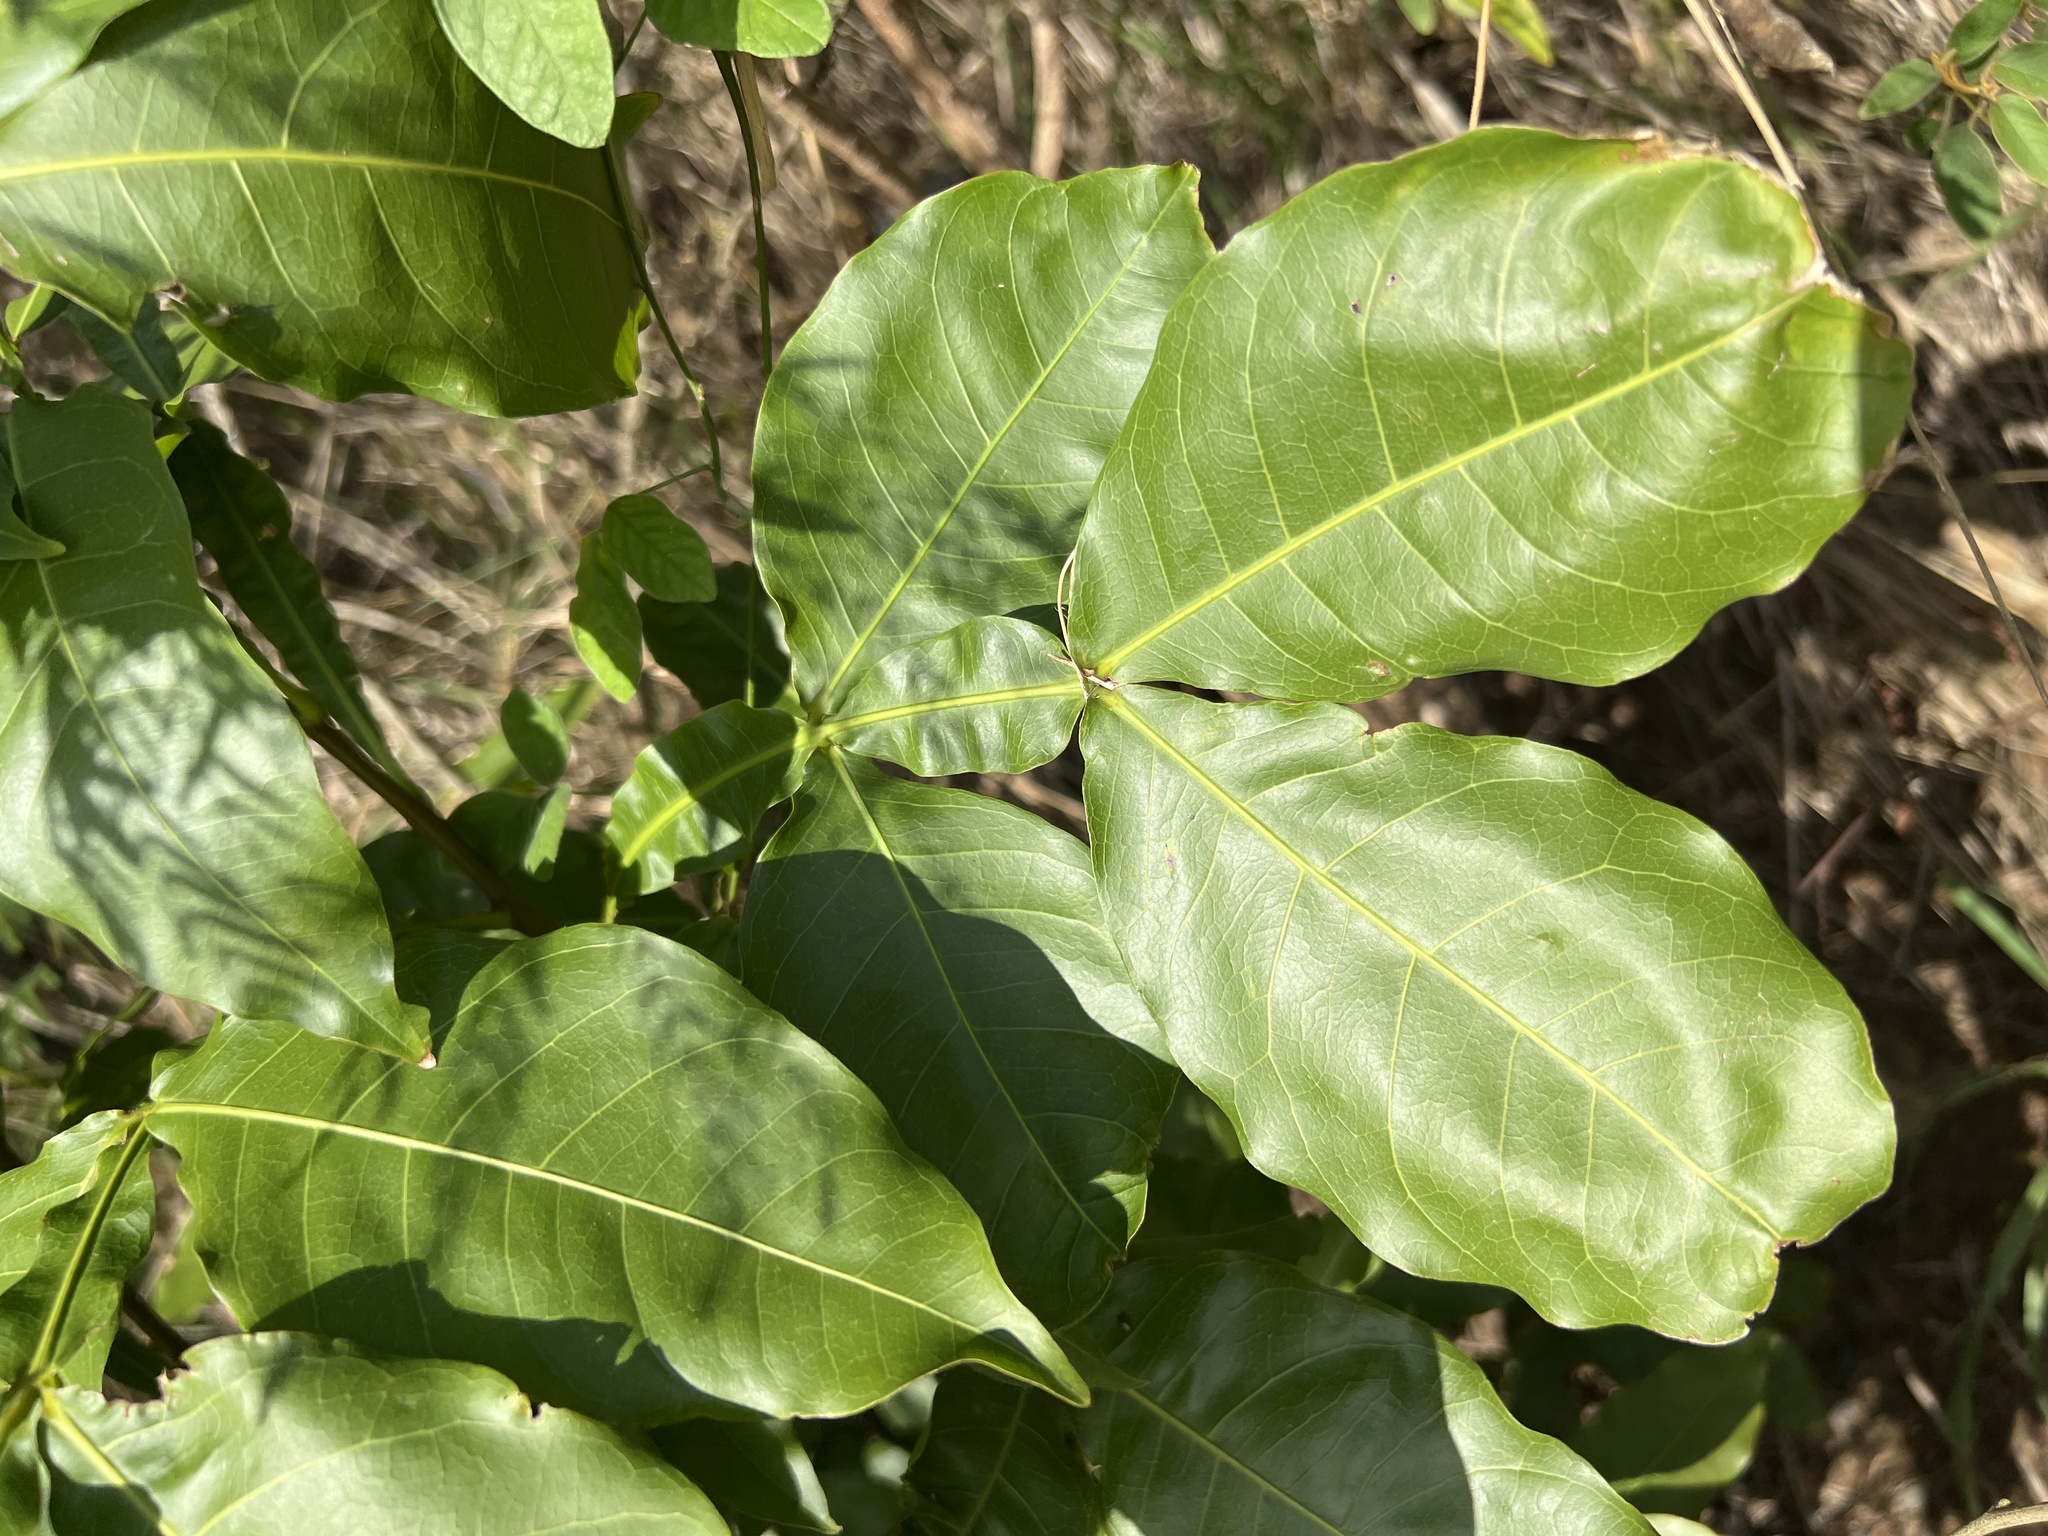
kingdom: Plantae
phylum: Tracheophyta
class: Magnoliopsida
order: Sapindales
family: Sapindaceae
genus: Melicoccus
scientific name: Melicoccus bijugatus
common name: Spanish lime
